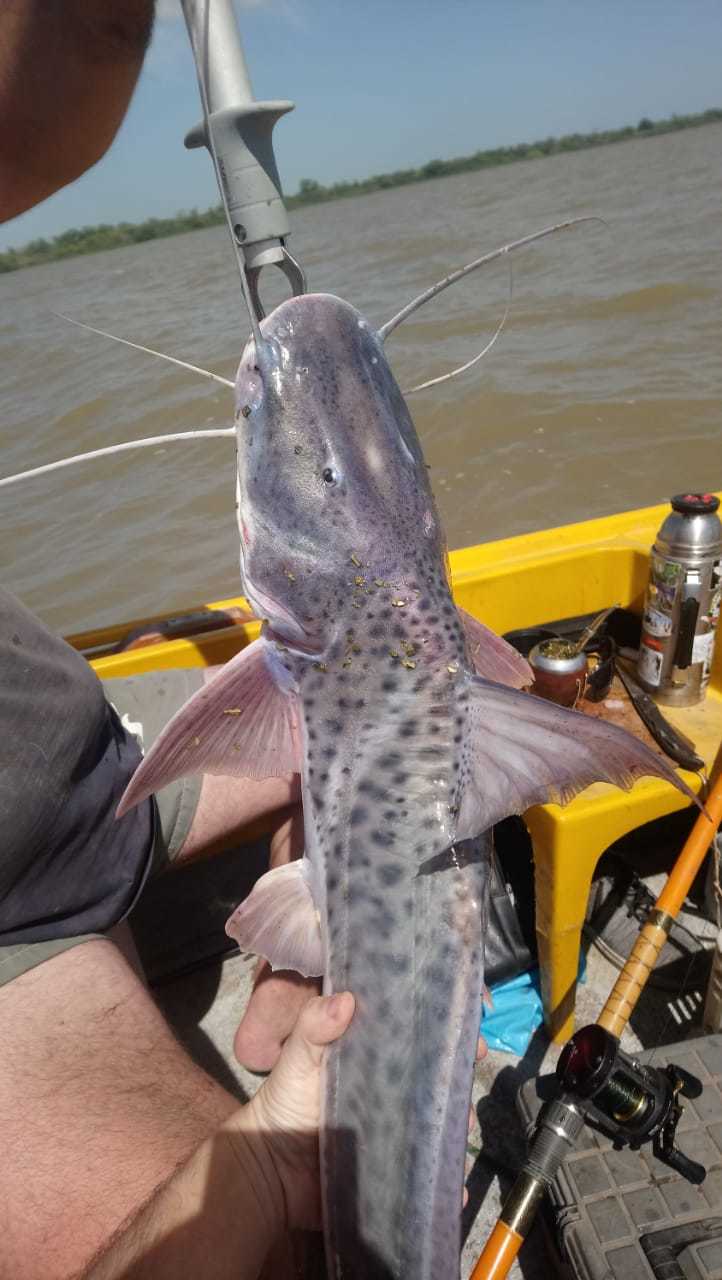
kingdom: Animalia
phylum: Chordata
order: Siluriformes
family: Pimelodidae
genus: Luciopimelodus
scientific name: Luciopimelodus pati
